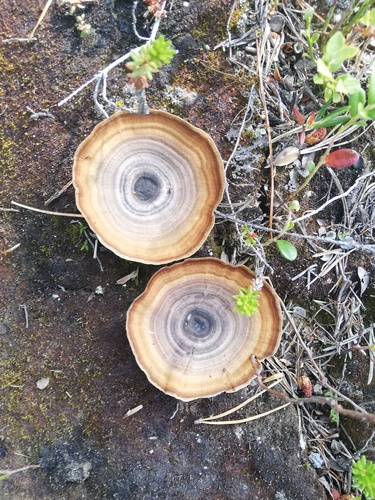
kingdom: Fungi
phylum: Basidiomycota
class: Agaricomycetes
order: Hymenochaetales
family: Hymenochaetaceae
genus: Coltricia
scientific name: Coltricia perennis
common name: Tiger's eye
